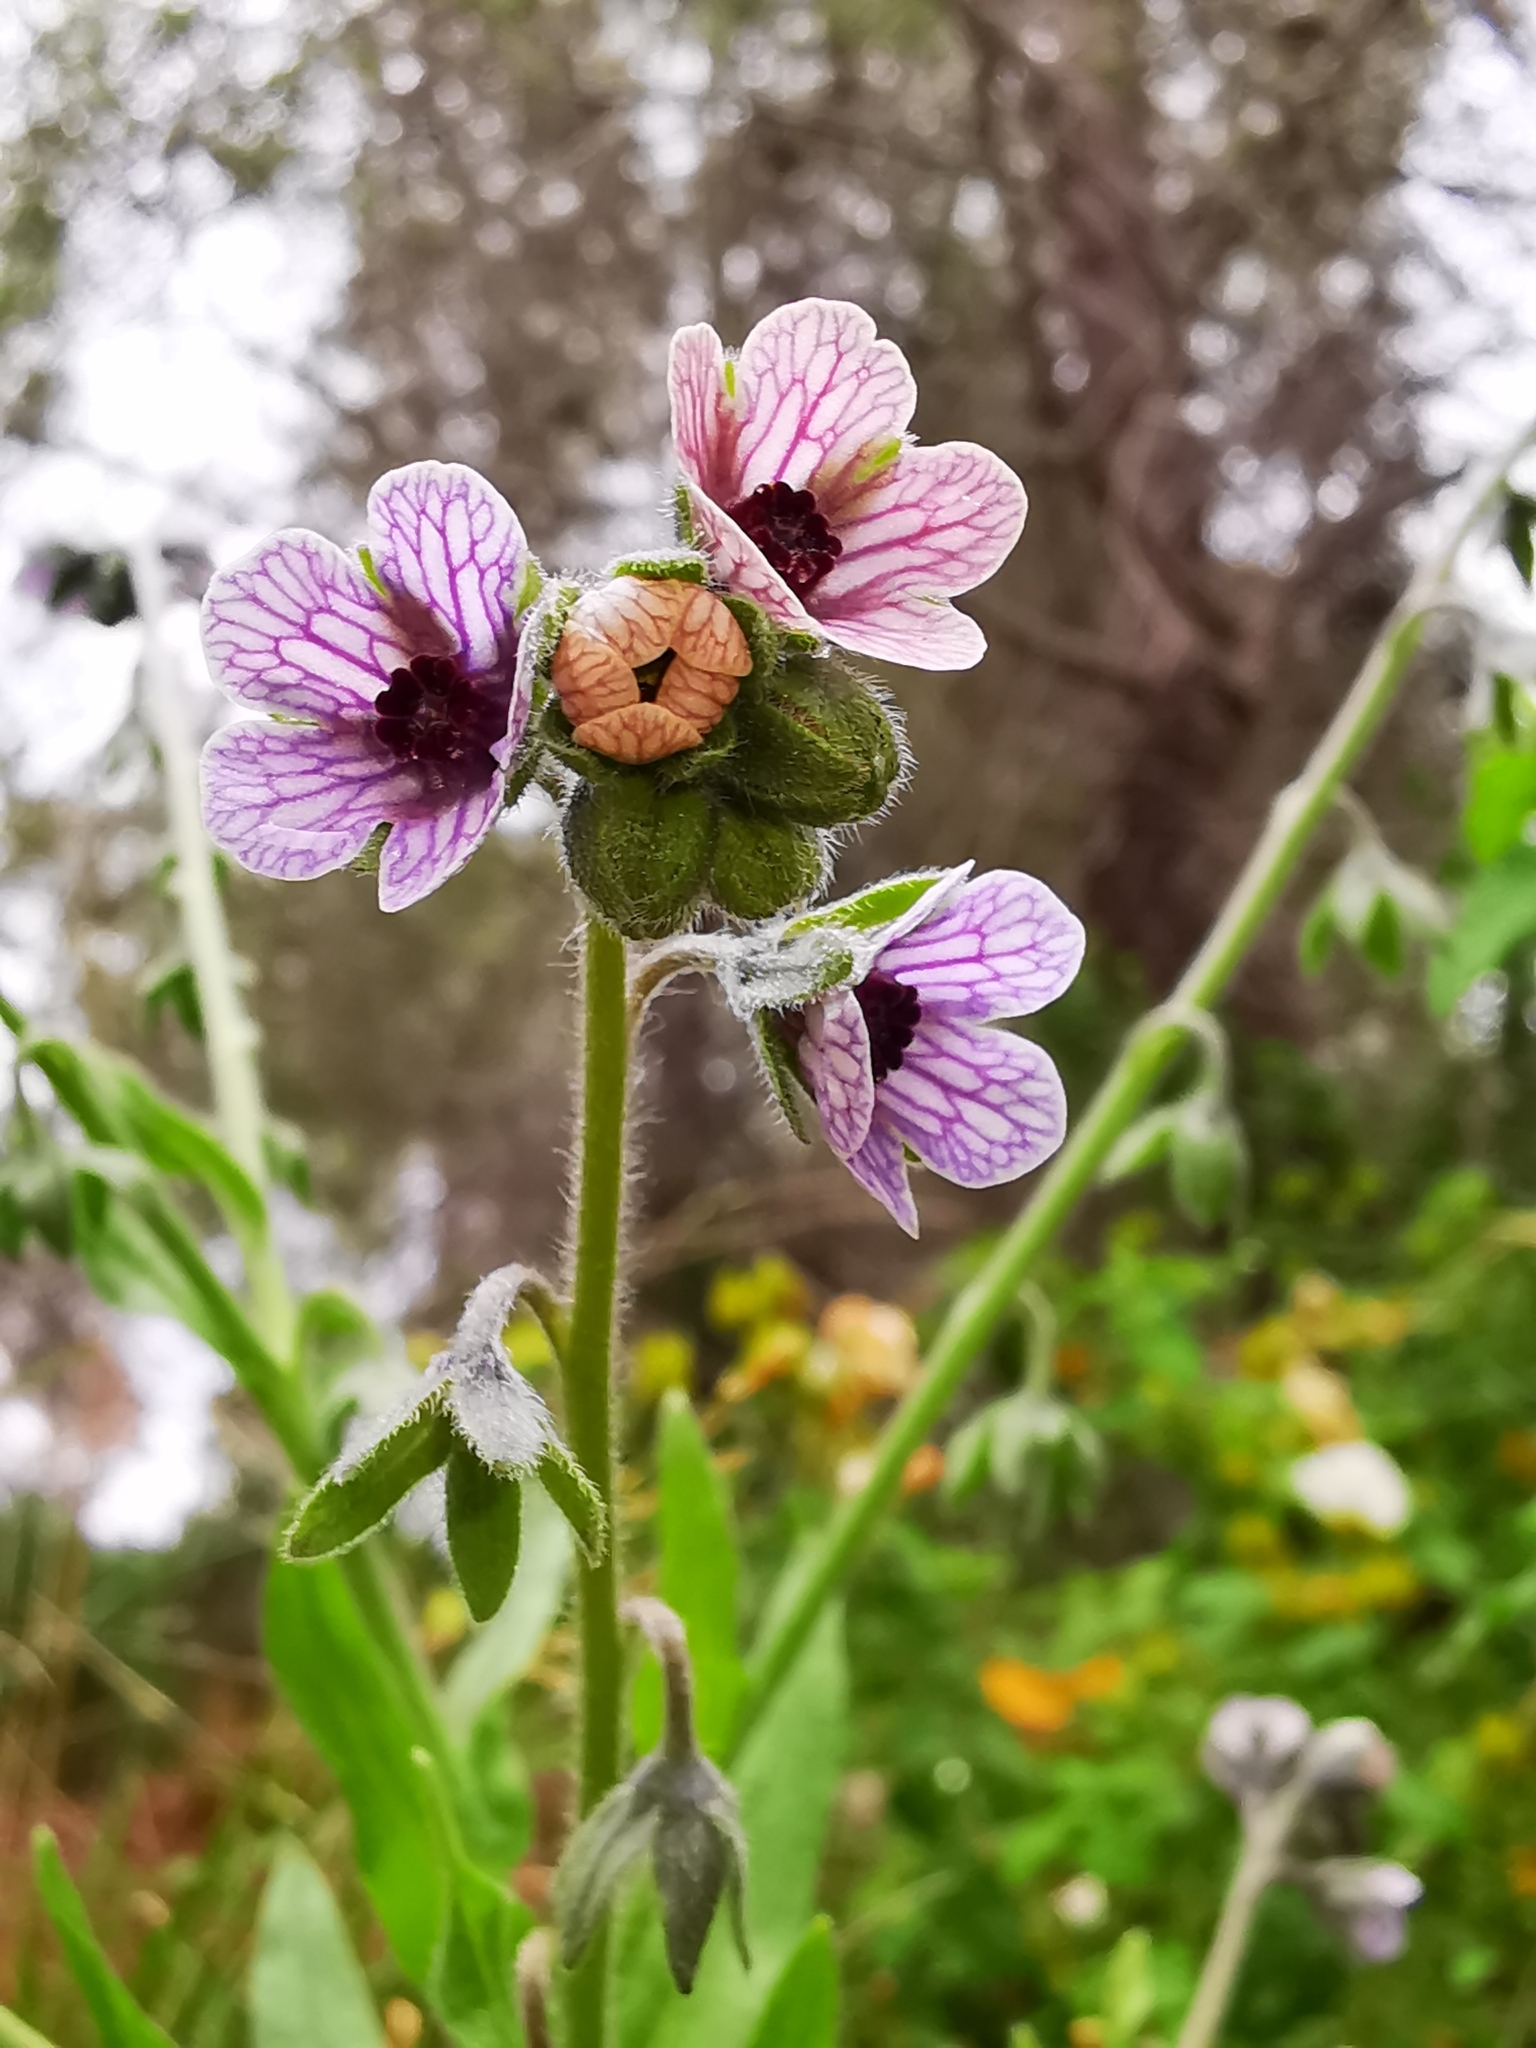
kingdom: Plantae
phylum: Tracheophyta
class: Magnoliopsida
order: Boraginales
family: Boraginaceae
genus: Cynoglossum
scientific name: Cynoglossum creticum
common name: Blue hound's tongue
